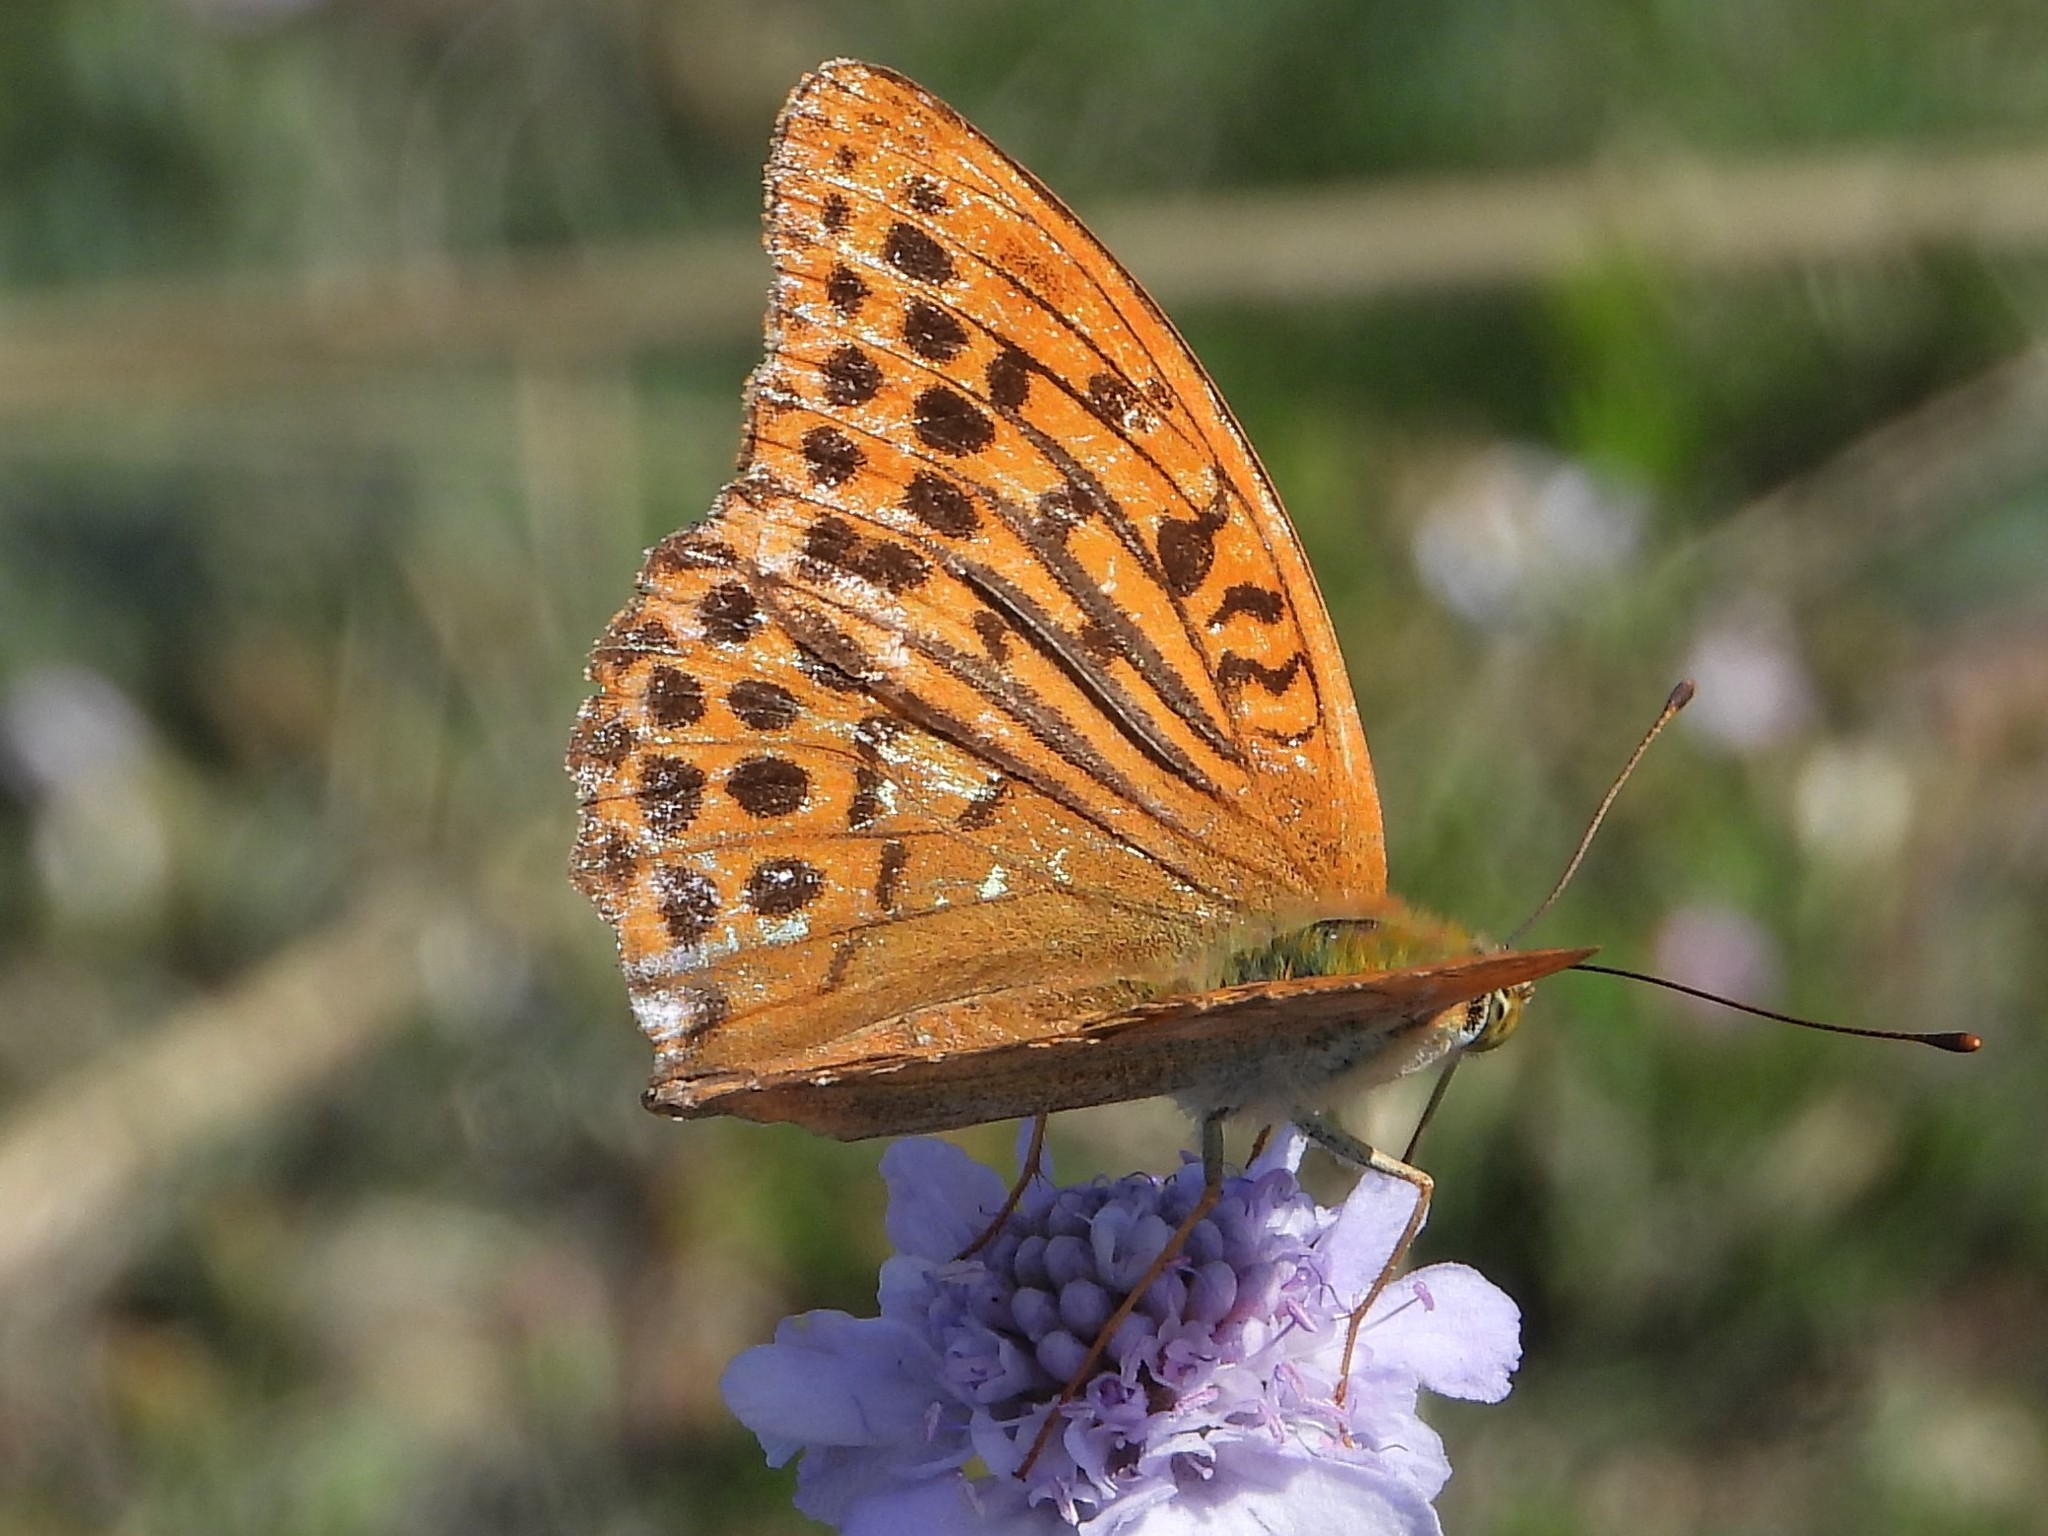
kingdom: Animalia
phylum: Arthropoda
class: Insecta
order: Lepidoptera
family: Nymphalidae
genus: Argynnis
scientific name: Argynnis paphia
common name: Silver-washed fritillary
